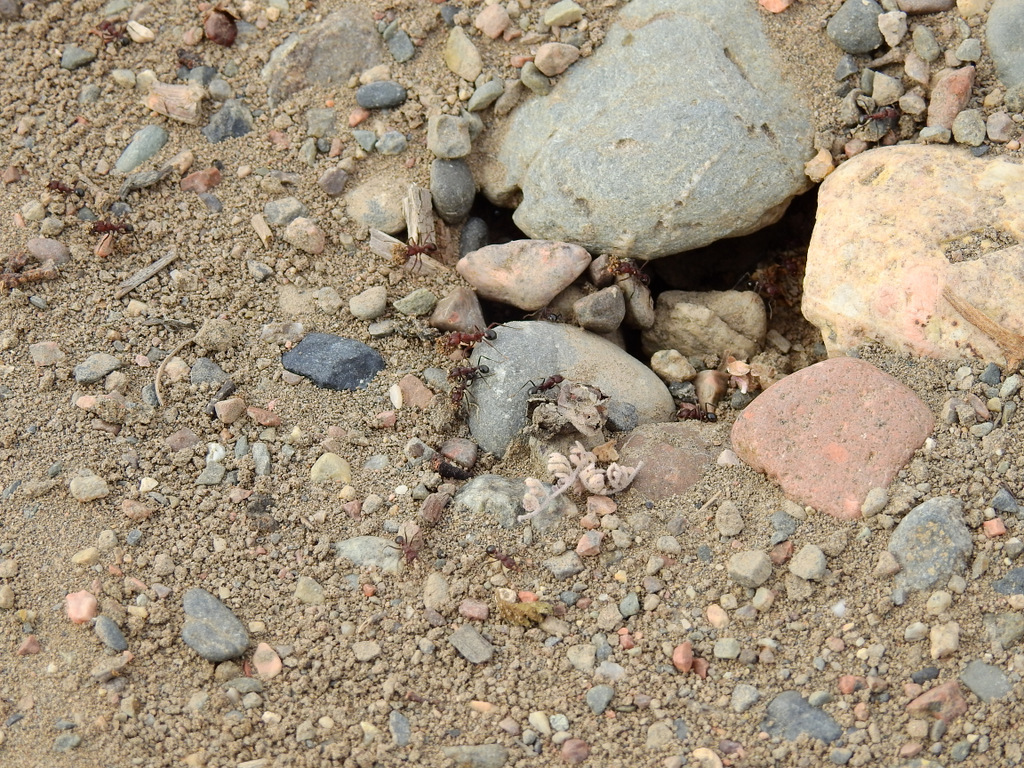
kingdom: Animalia
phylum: Arthropoda
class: Insecta
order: Hymenoptera
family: Formicidae
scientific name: Formicidae
